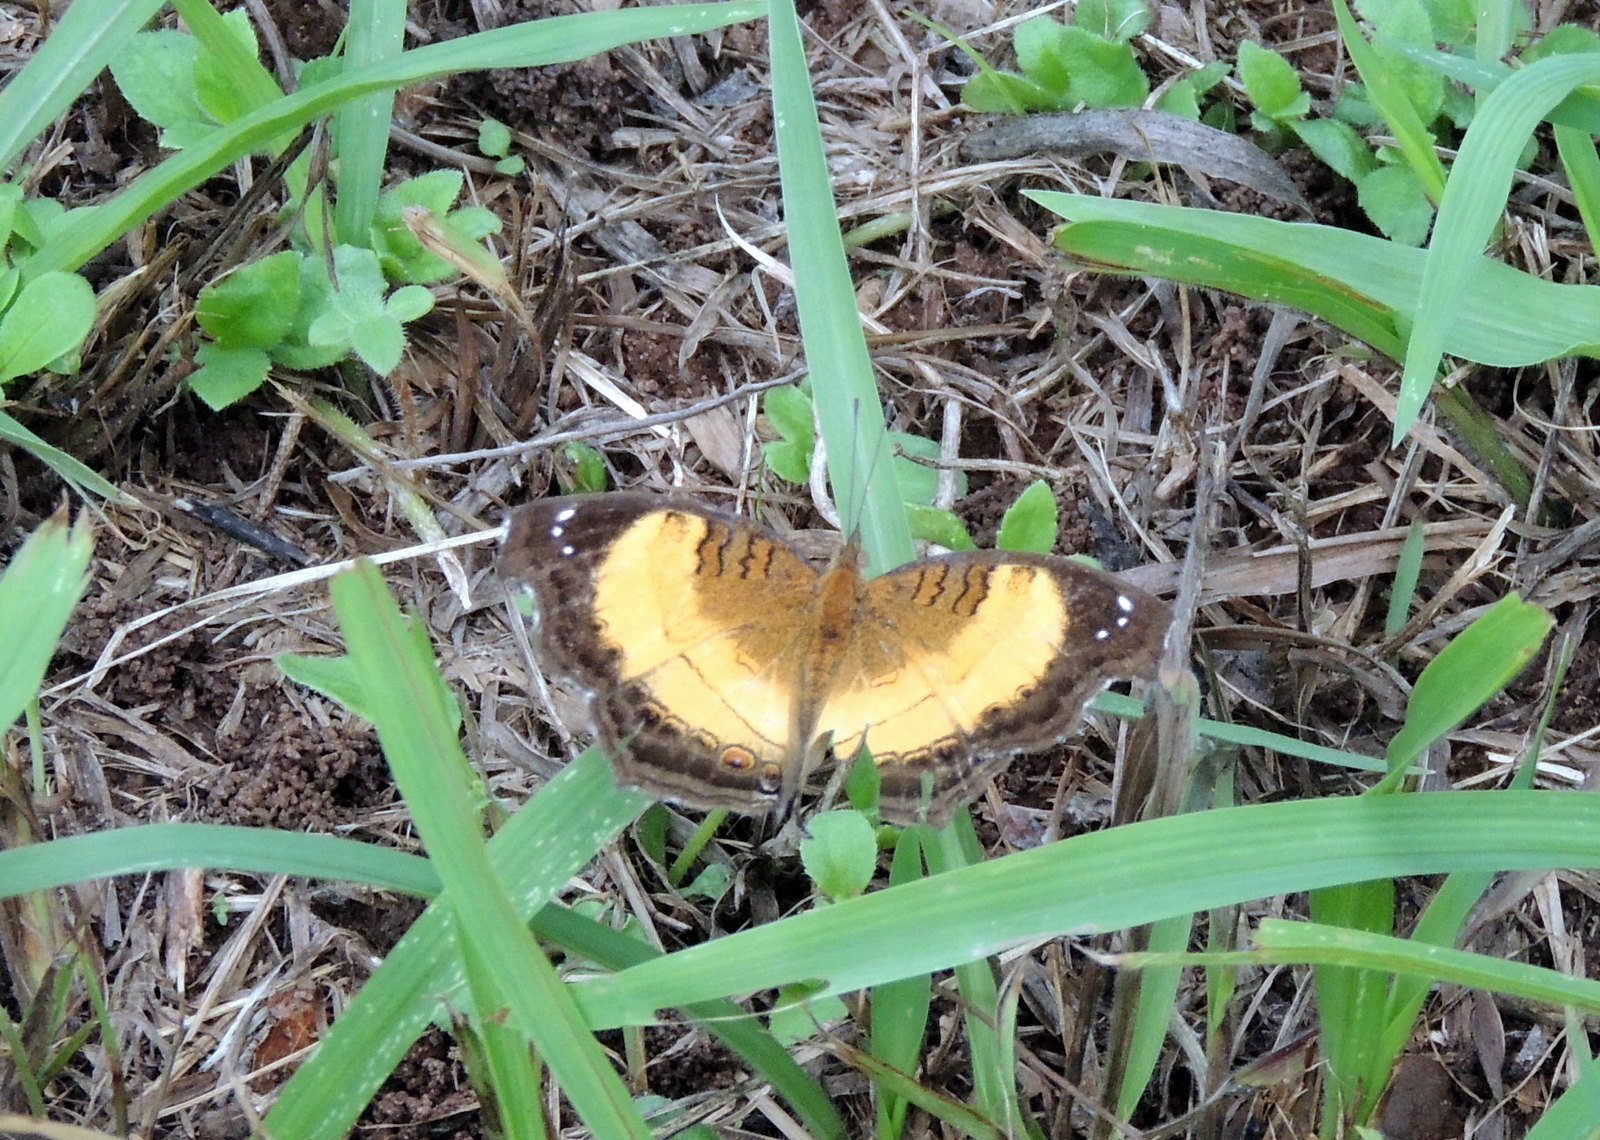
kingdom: Animalia
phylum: Arthropoda
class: Insecta
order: Lepidoptera
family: Nymphalidae
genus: Junonia
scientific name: Junonia terea
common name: Soldier pansy
